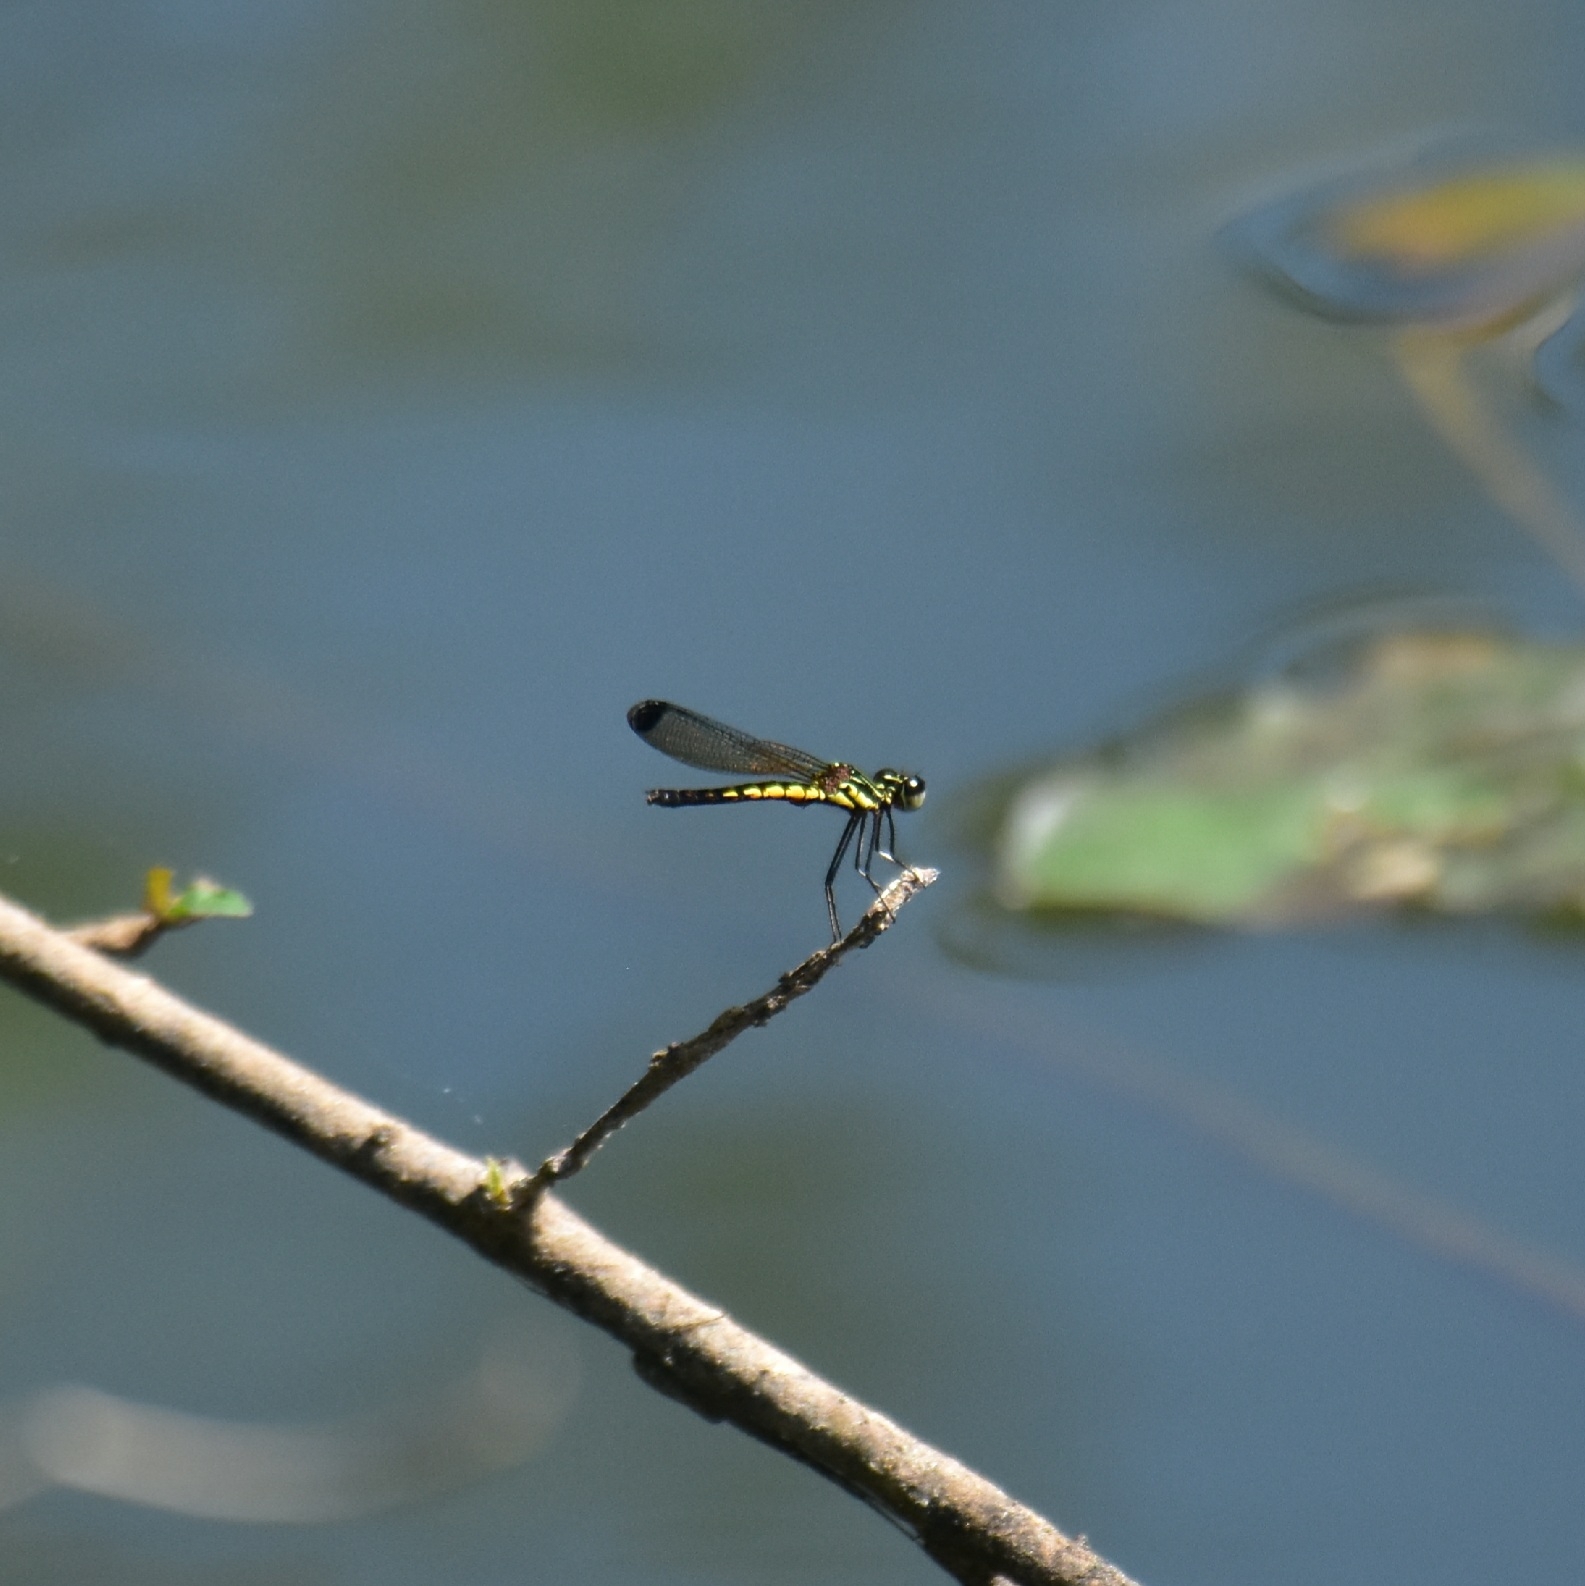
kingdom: Animalia
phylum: Arthropoda
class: Insecta
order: Odonata
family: Chlorocyphidae
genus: Libellago
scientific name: Libellago indica
